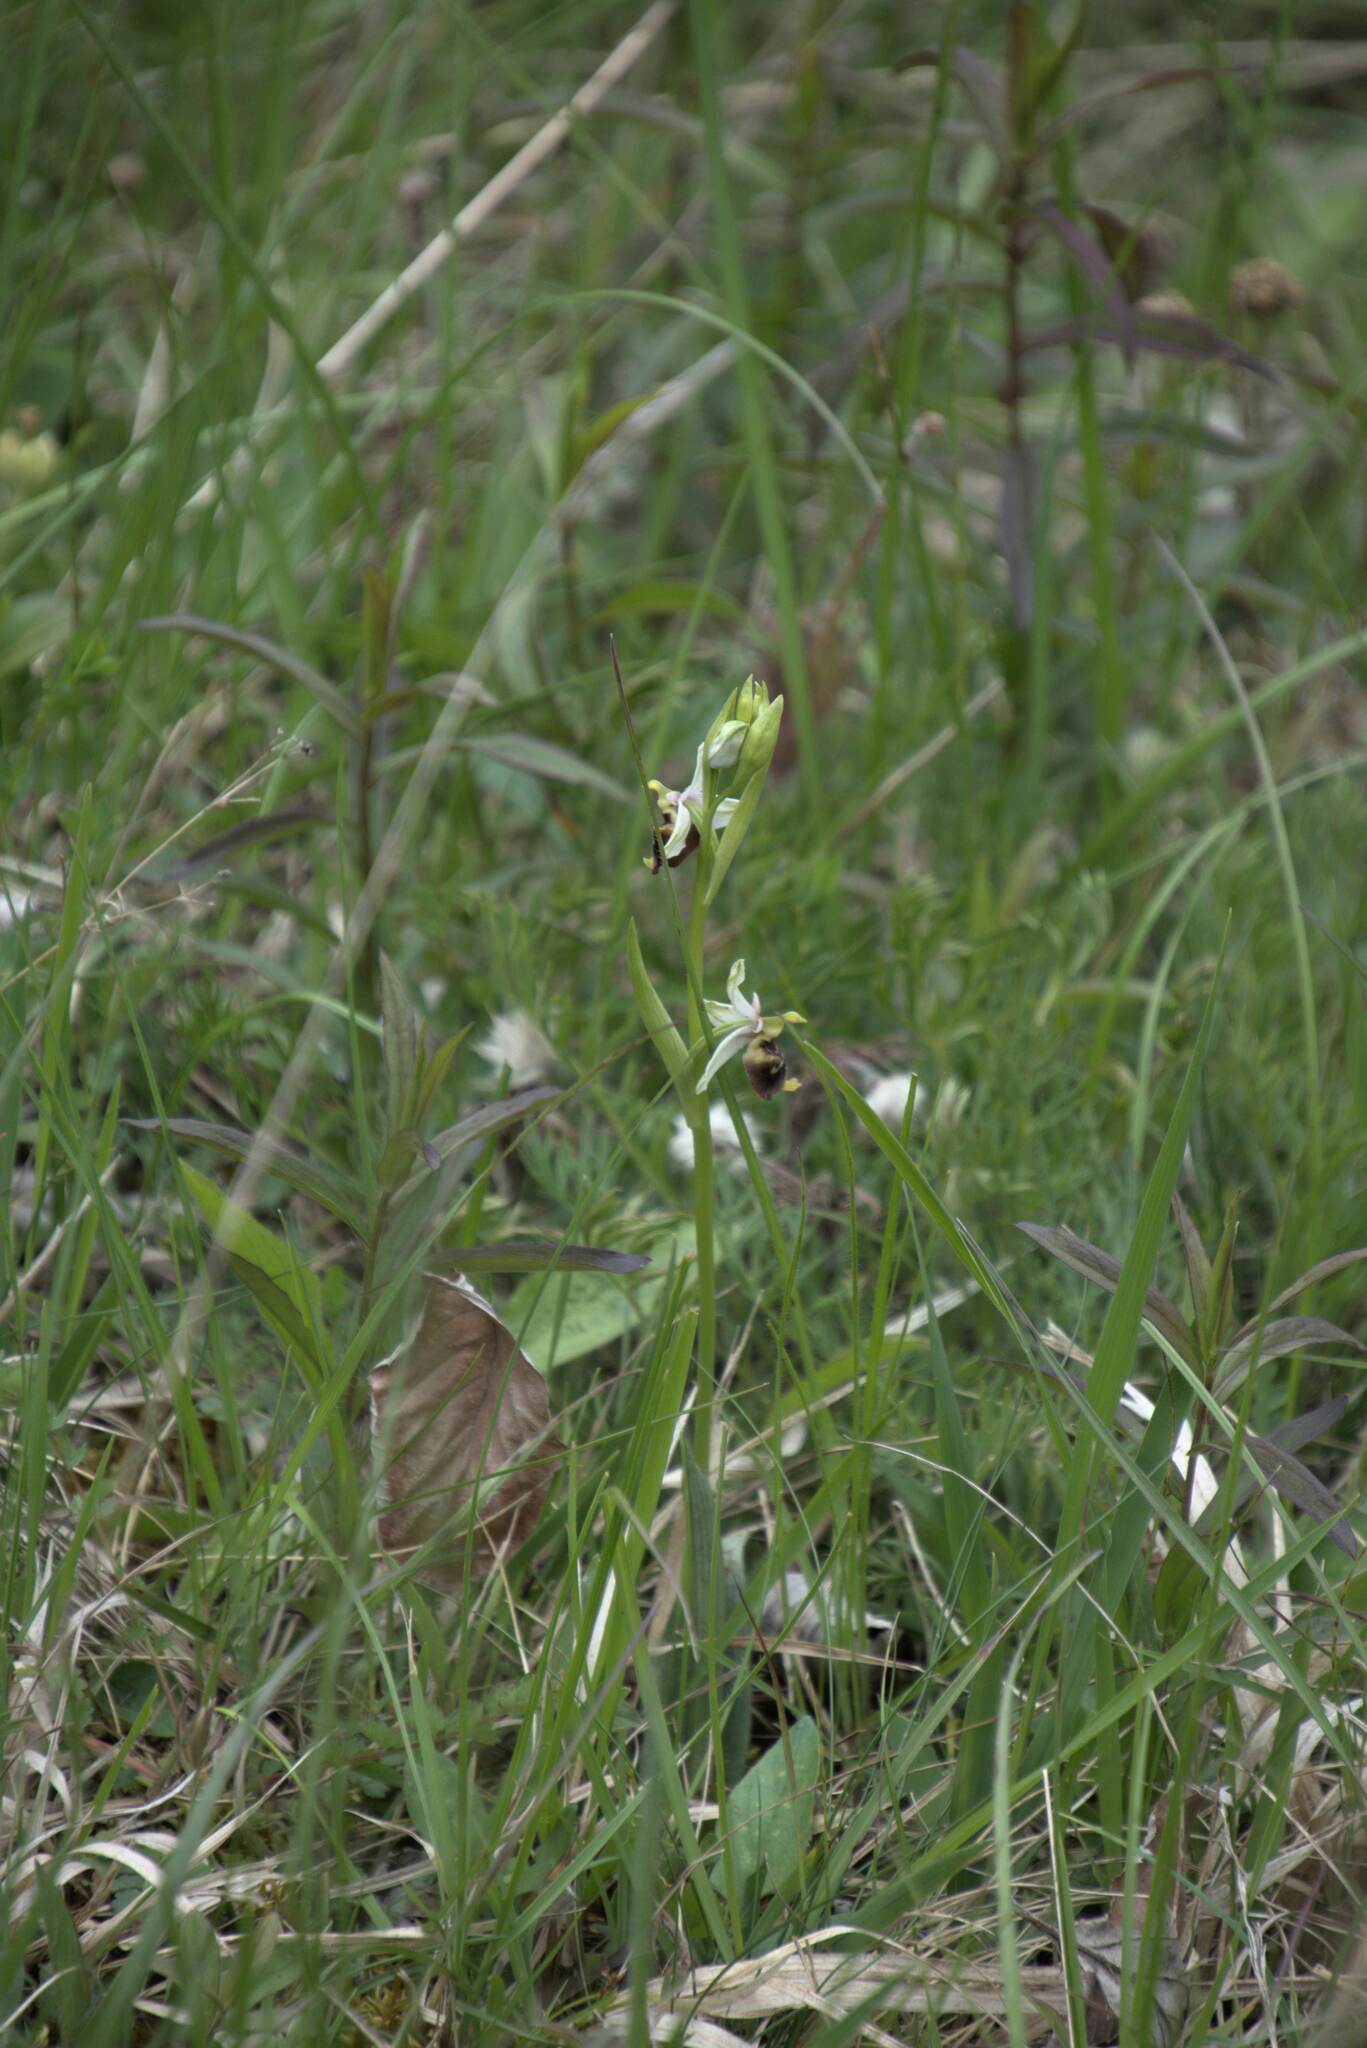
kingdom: Plantae
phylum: Tracheophyta
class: Liliopsida
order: Asparagales
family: Orchidaceae
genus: Ophrys
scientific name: Ophrys holosericea
